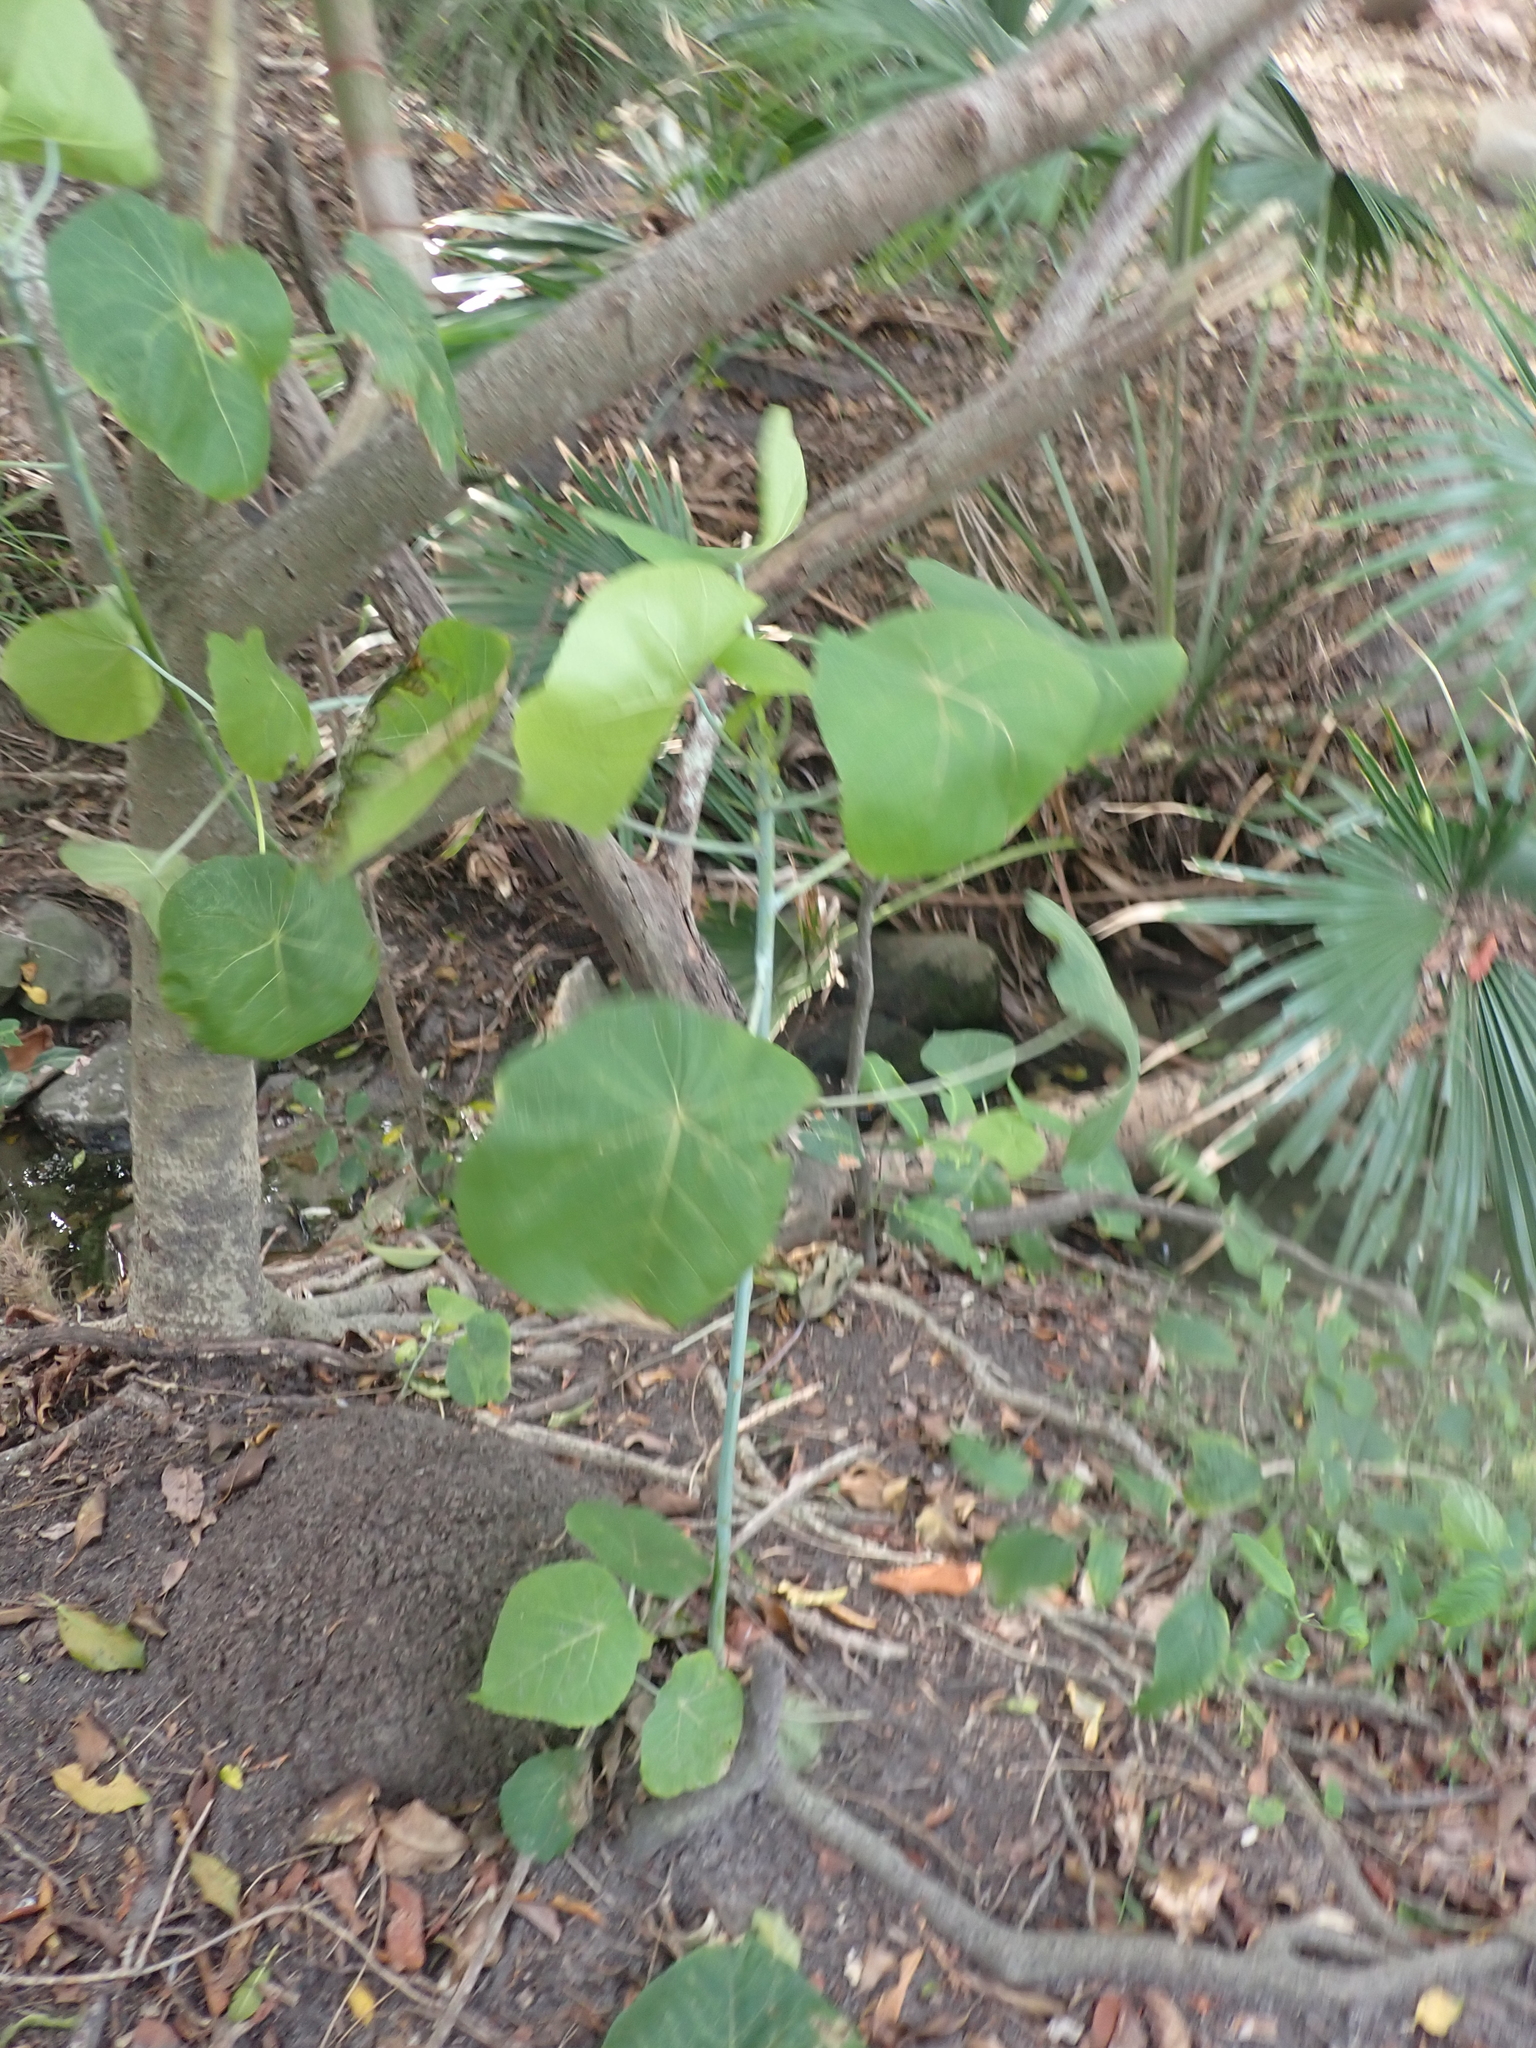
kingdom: Plantae
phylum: Tracheophyta
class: Magnoliopsida
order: Malpighiales
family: Euphorbiaceae
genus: Macaranga
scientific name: Macaranga tanarius
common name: Parasol leaf tree
